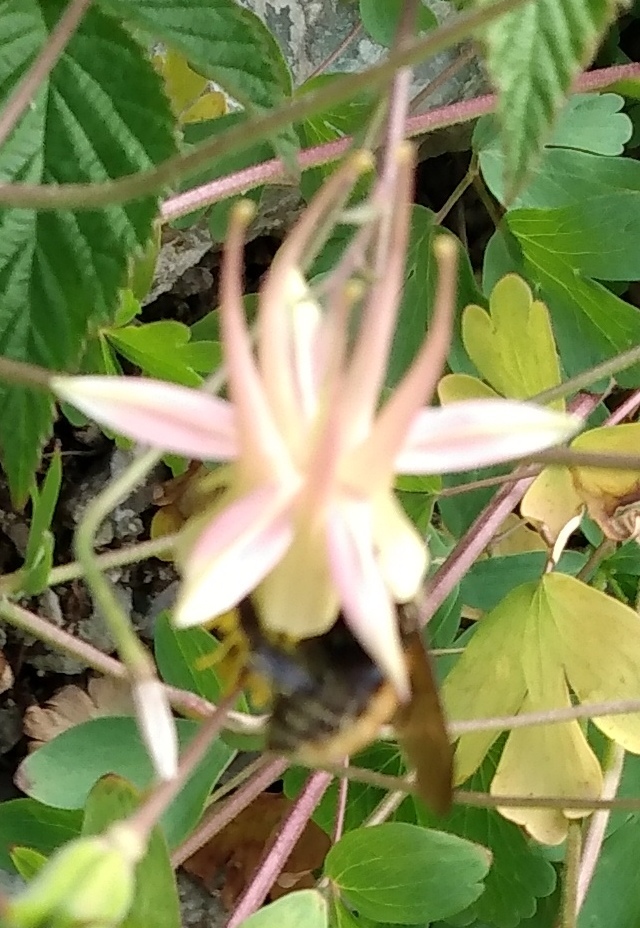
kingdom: Animalia
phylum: Arthropoda
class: Insecta
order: Hymenoptera
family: Apidae
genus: Bombus
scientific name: Bombus appositus
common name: White-shouldered bumble bee
